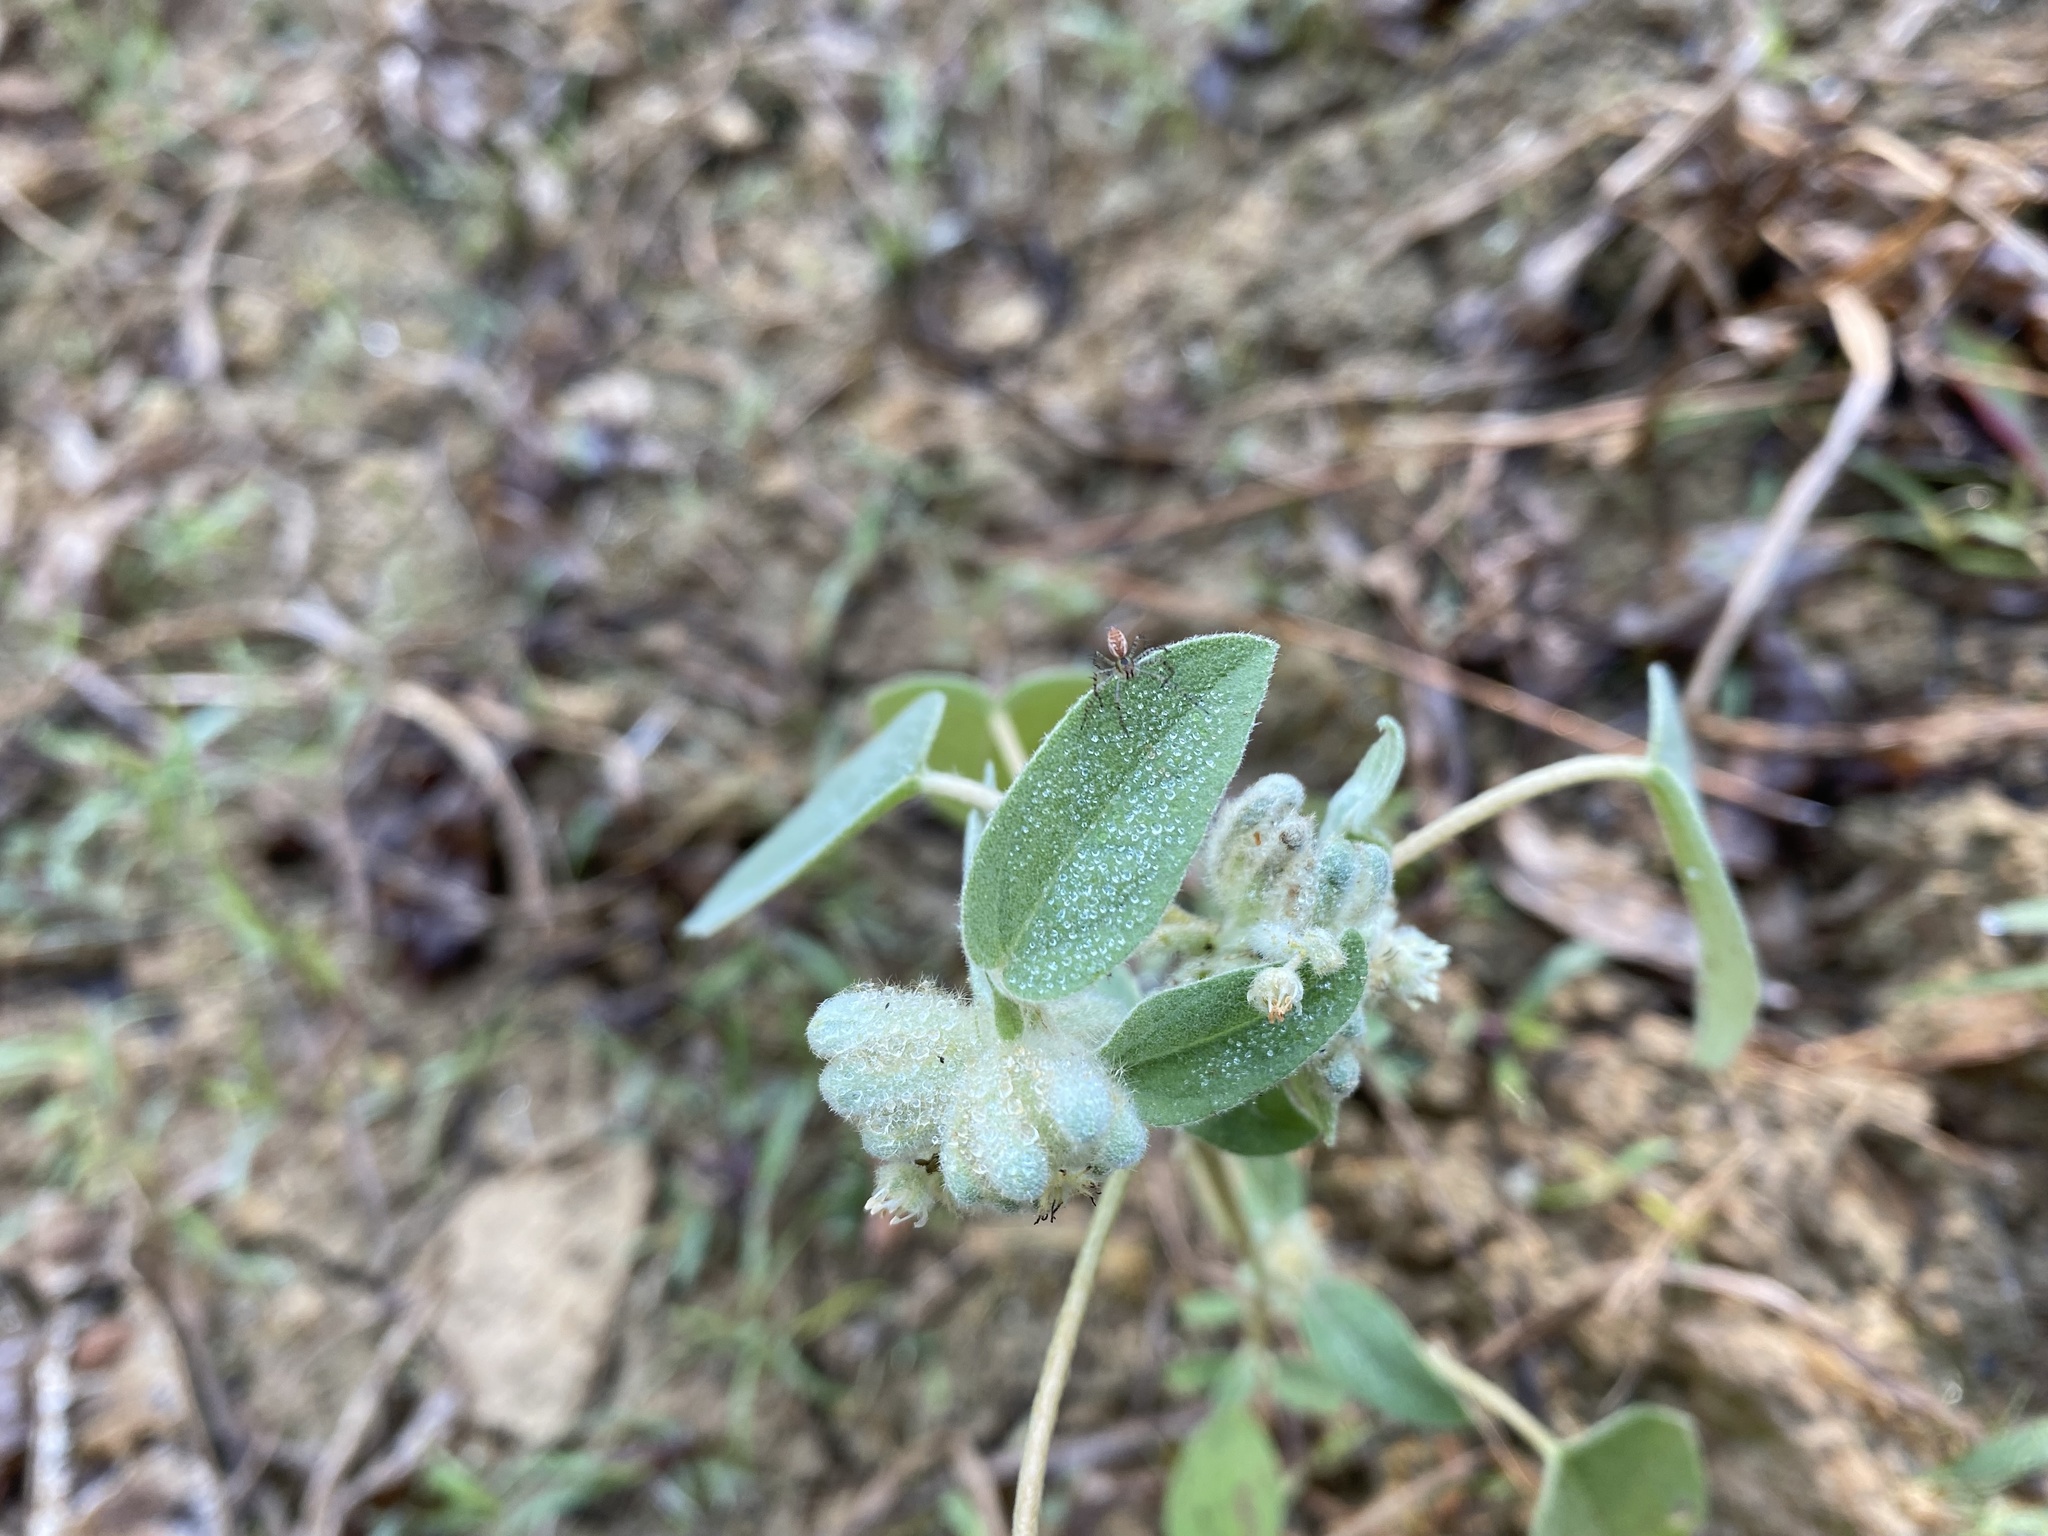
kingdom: Animalia
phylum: Arthropoda
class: Arachnida
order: Araneae
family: Oxyopidae
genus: Peucetia
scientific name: Peucetia viridans
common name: Lynx spiders
